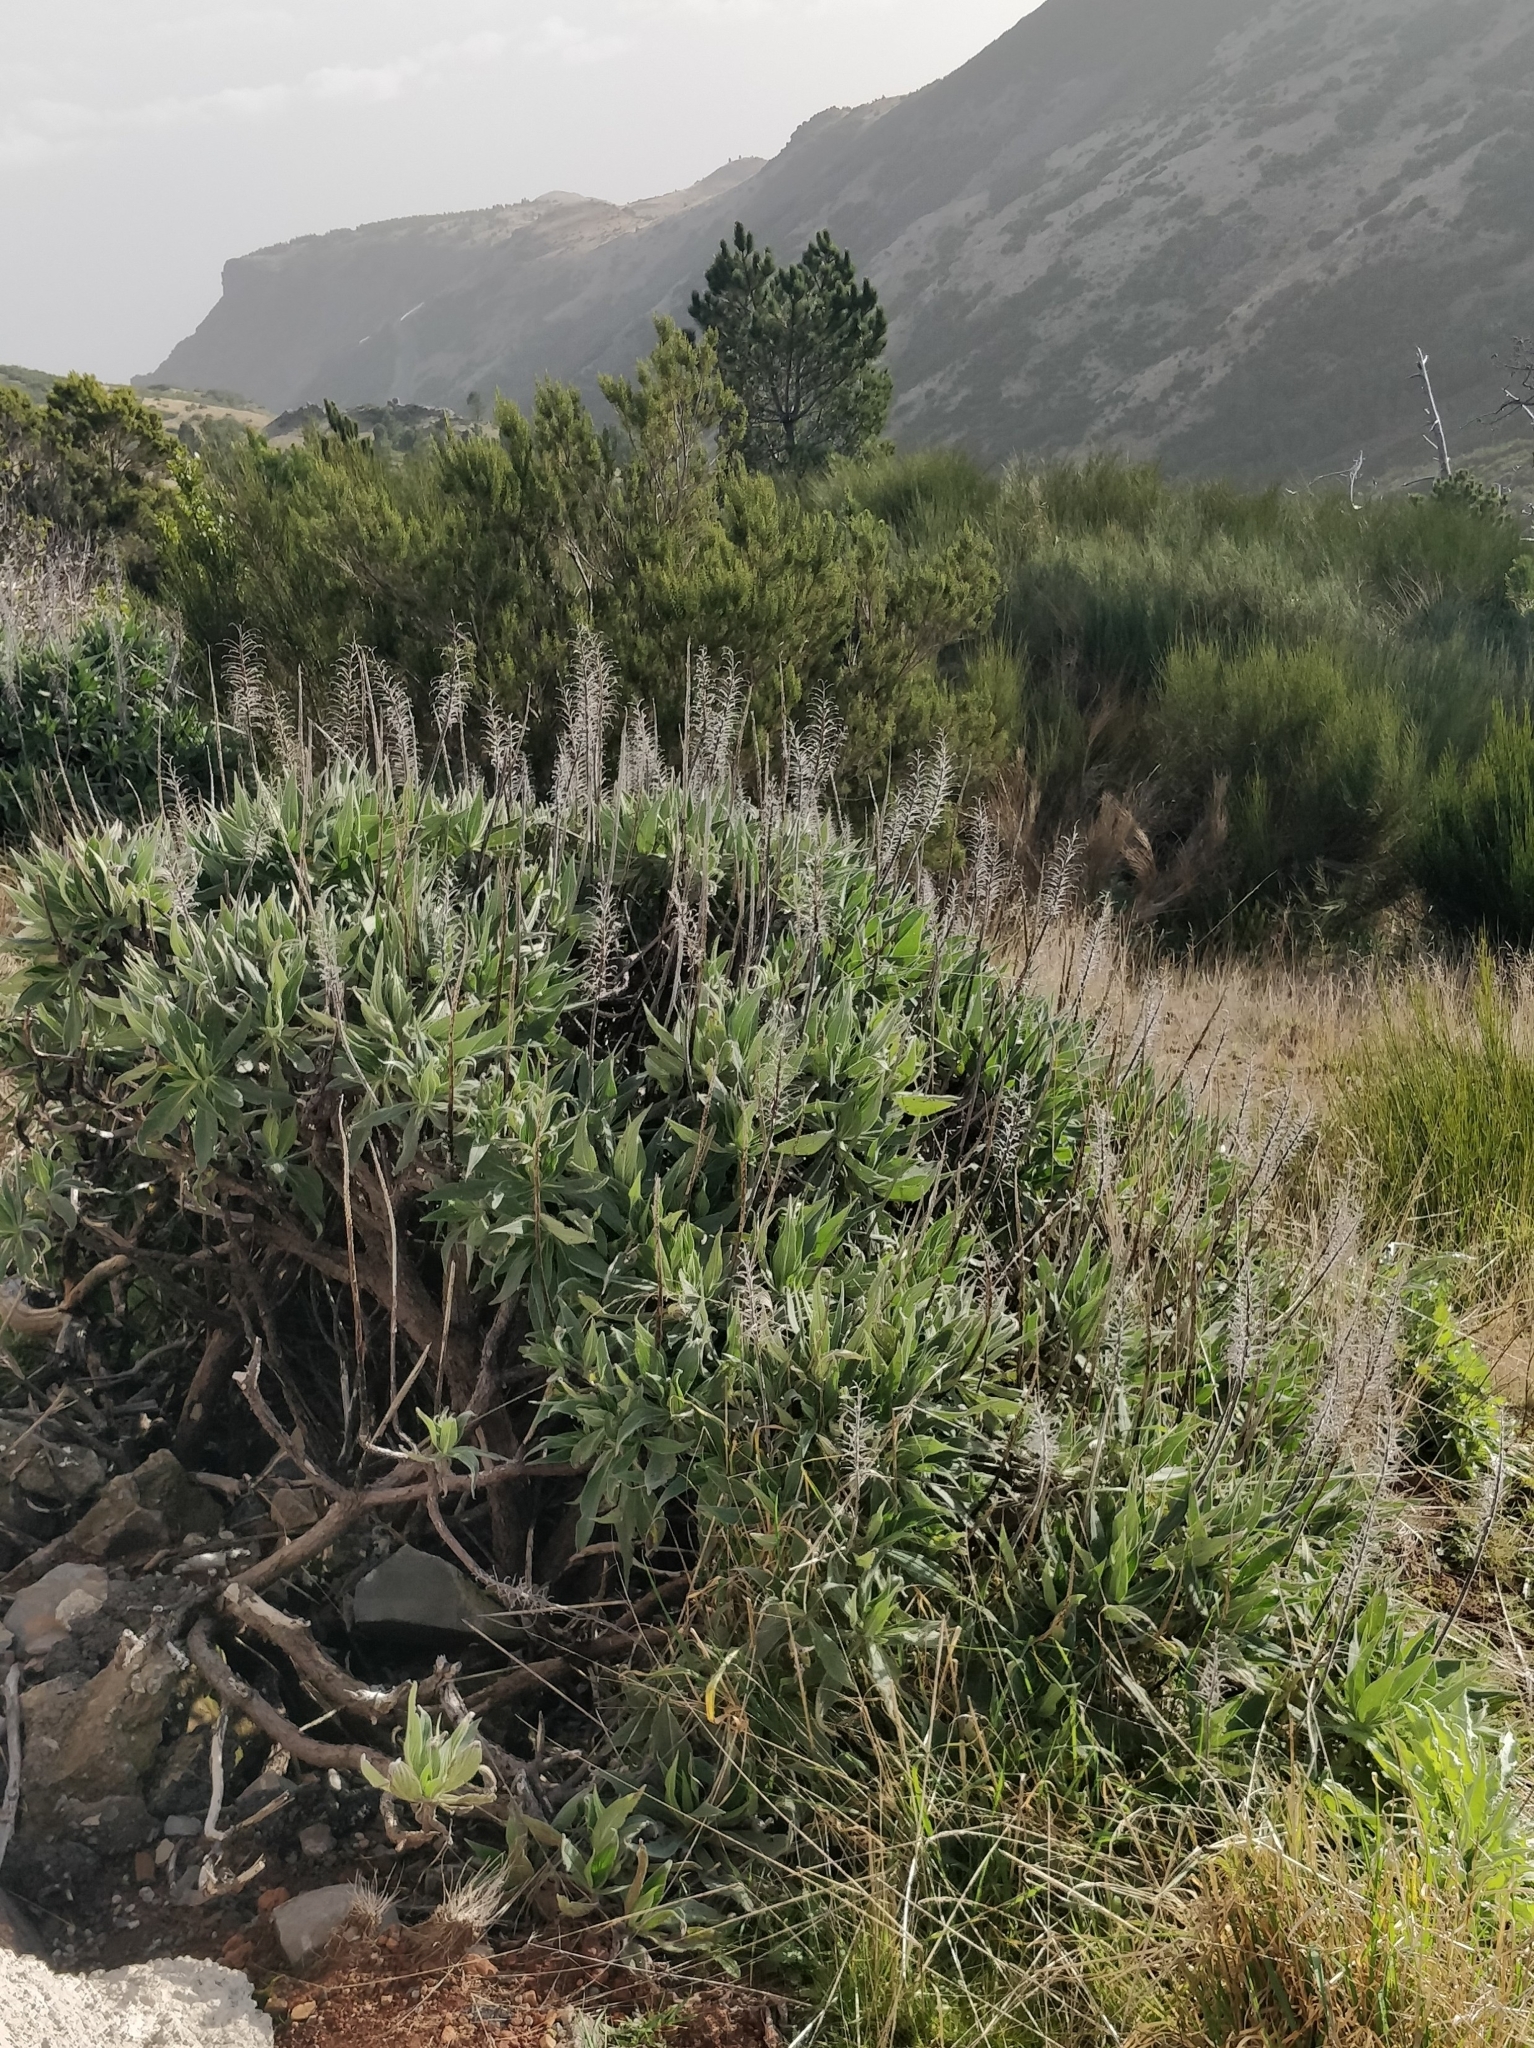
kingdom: Plantae
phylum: Tracheophyta
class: Magnoliopsida
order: Boraginales
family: Boraginaceae
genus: Echium
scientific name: Echium candicans
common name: Pride of madeira
